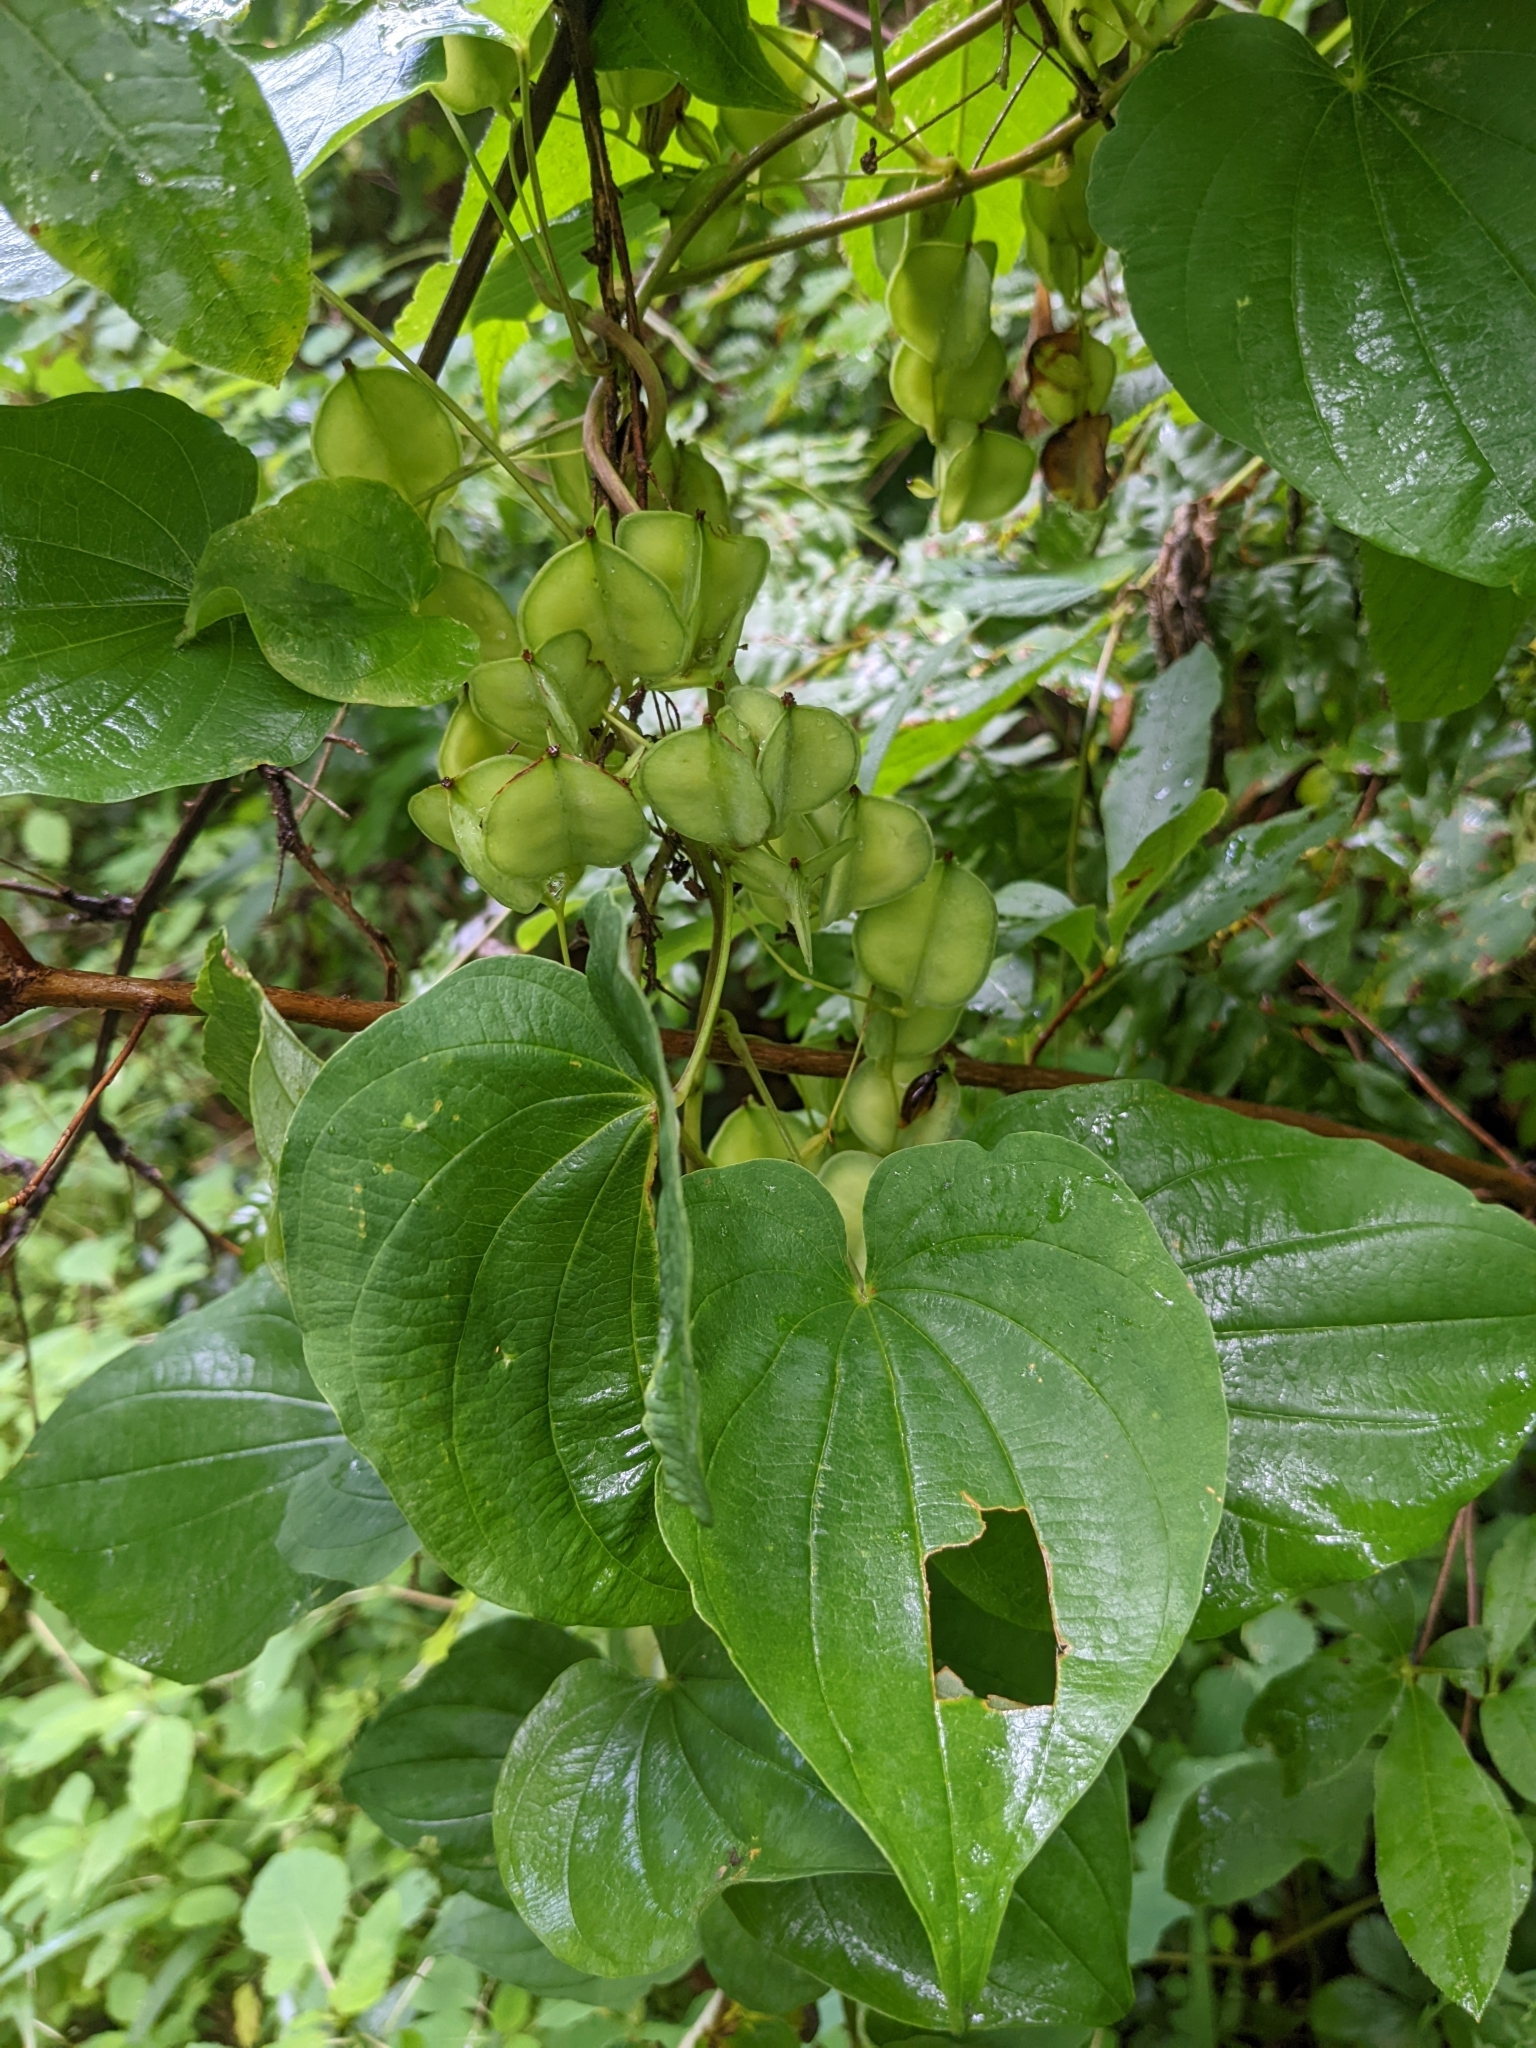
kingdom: Plantae
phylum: Tracheophyta
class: Liliopsida
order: Dioscoreales
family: Dioscoreaceae
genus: Dioscorea
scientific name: Dioscorea villosa
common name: Wild yam
